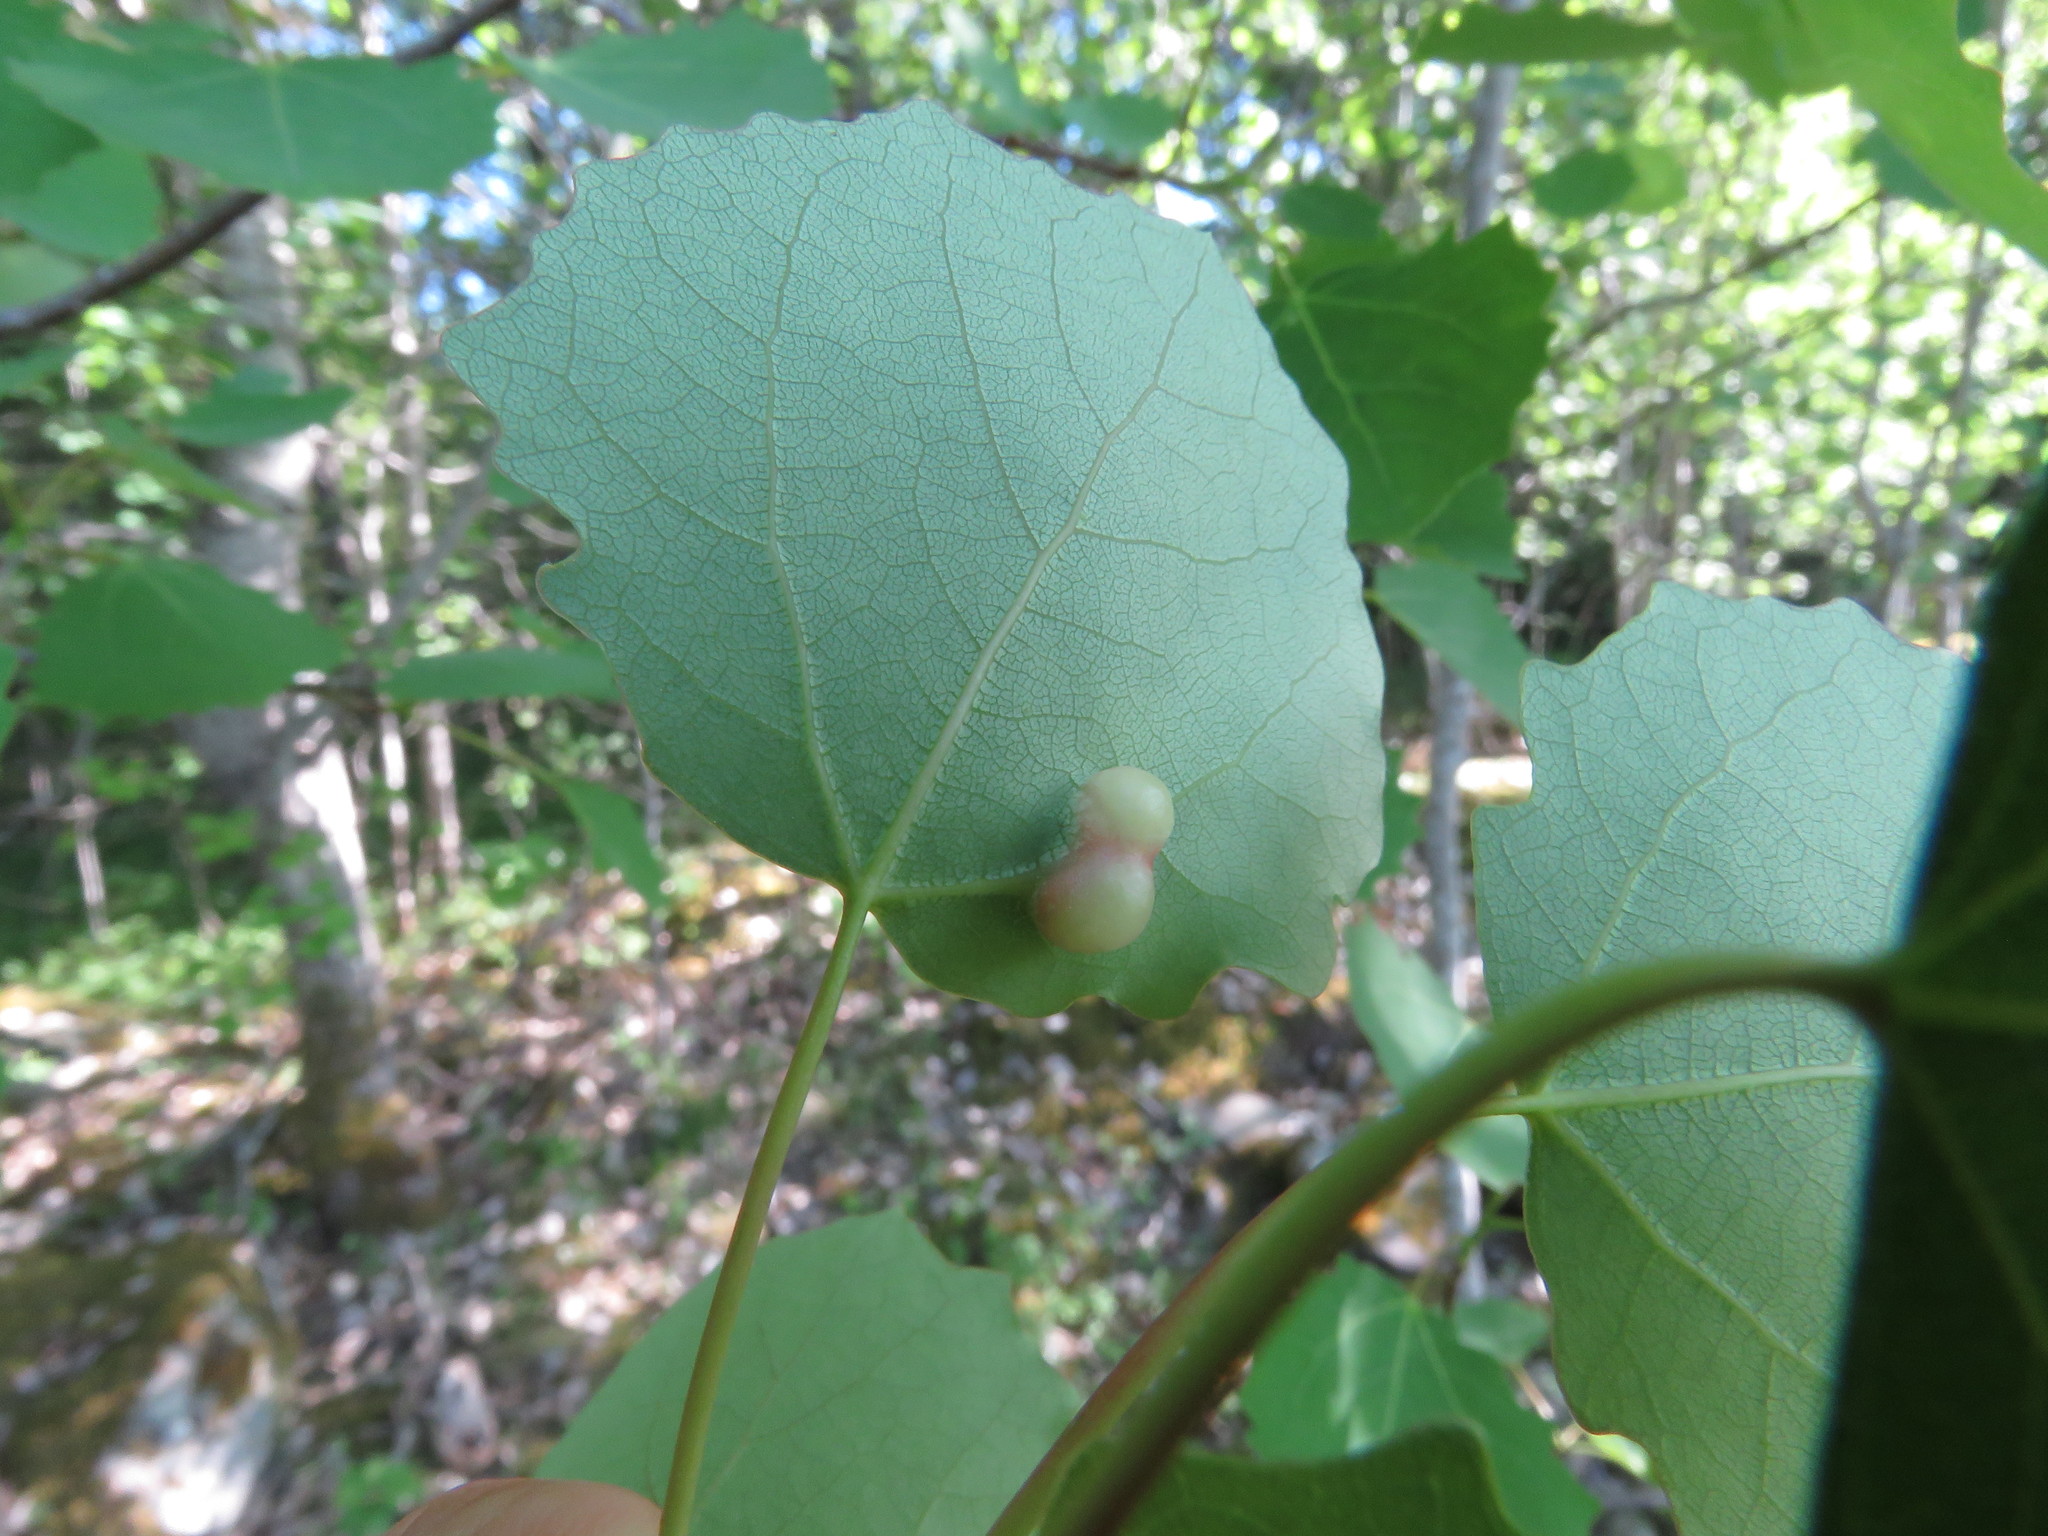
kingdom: Animalia
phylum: Arthropoda
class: Insecta
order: Diptera
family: Cecidomyiidae
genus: Harmandiola
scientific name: Harmandiola cavernosa
